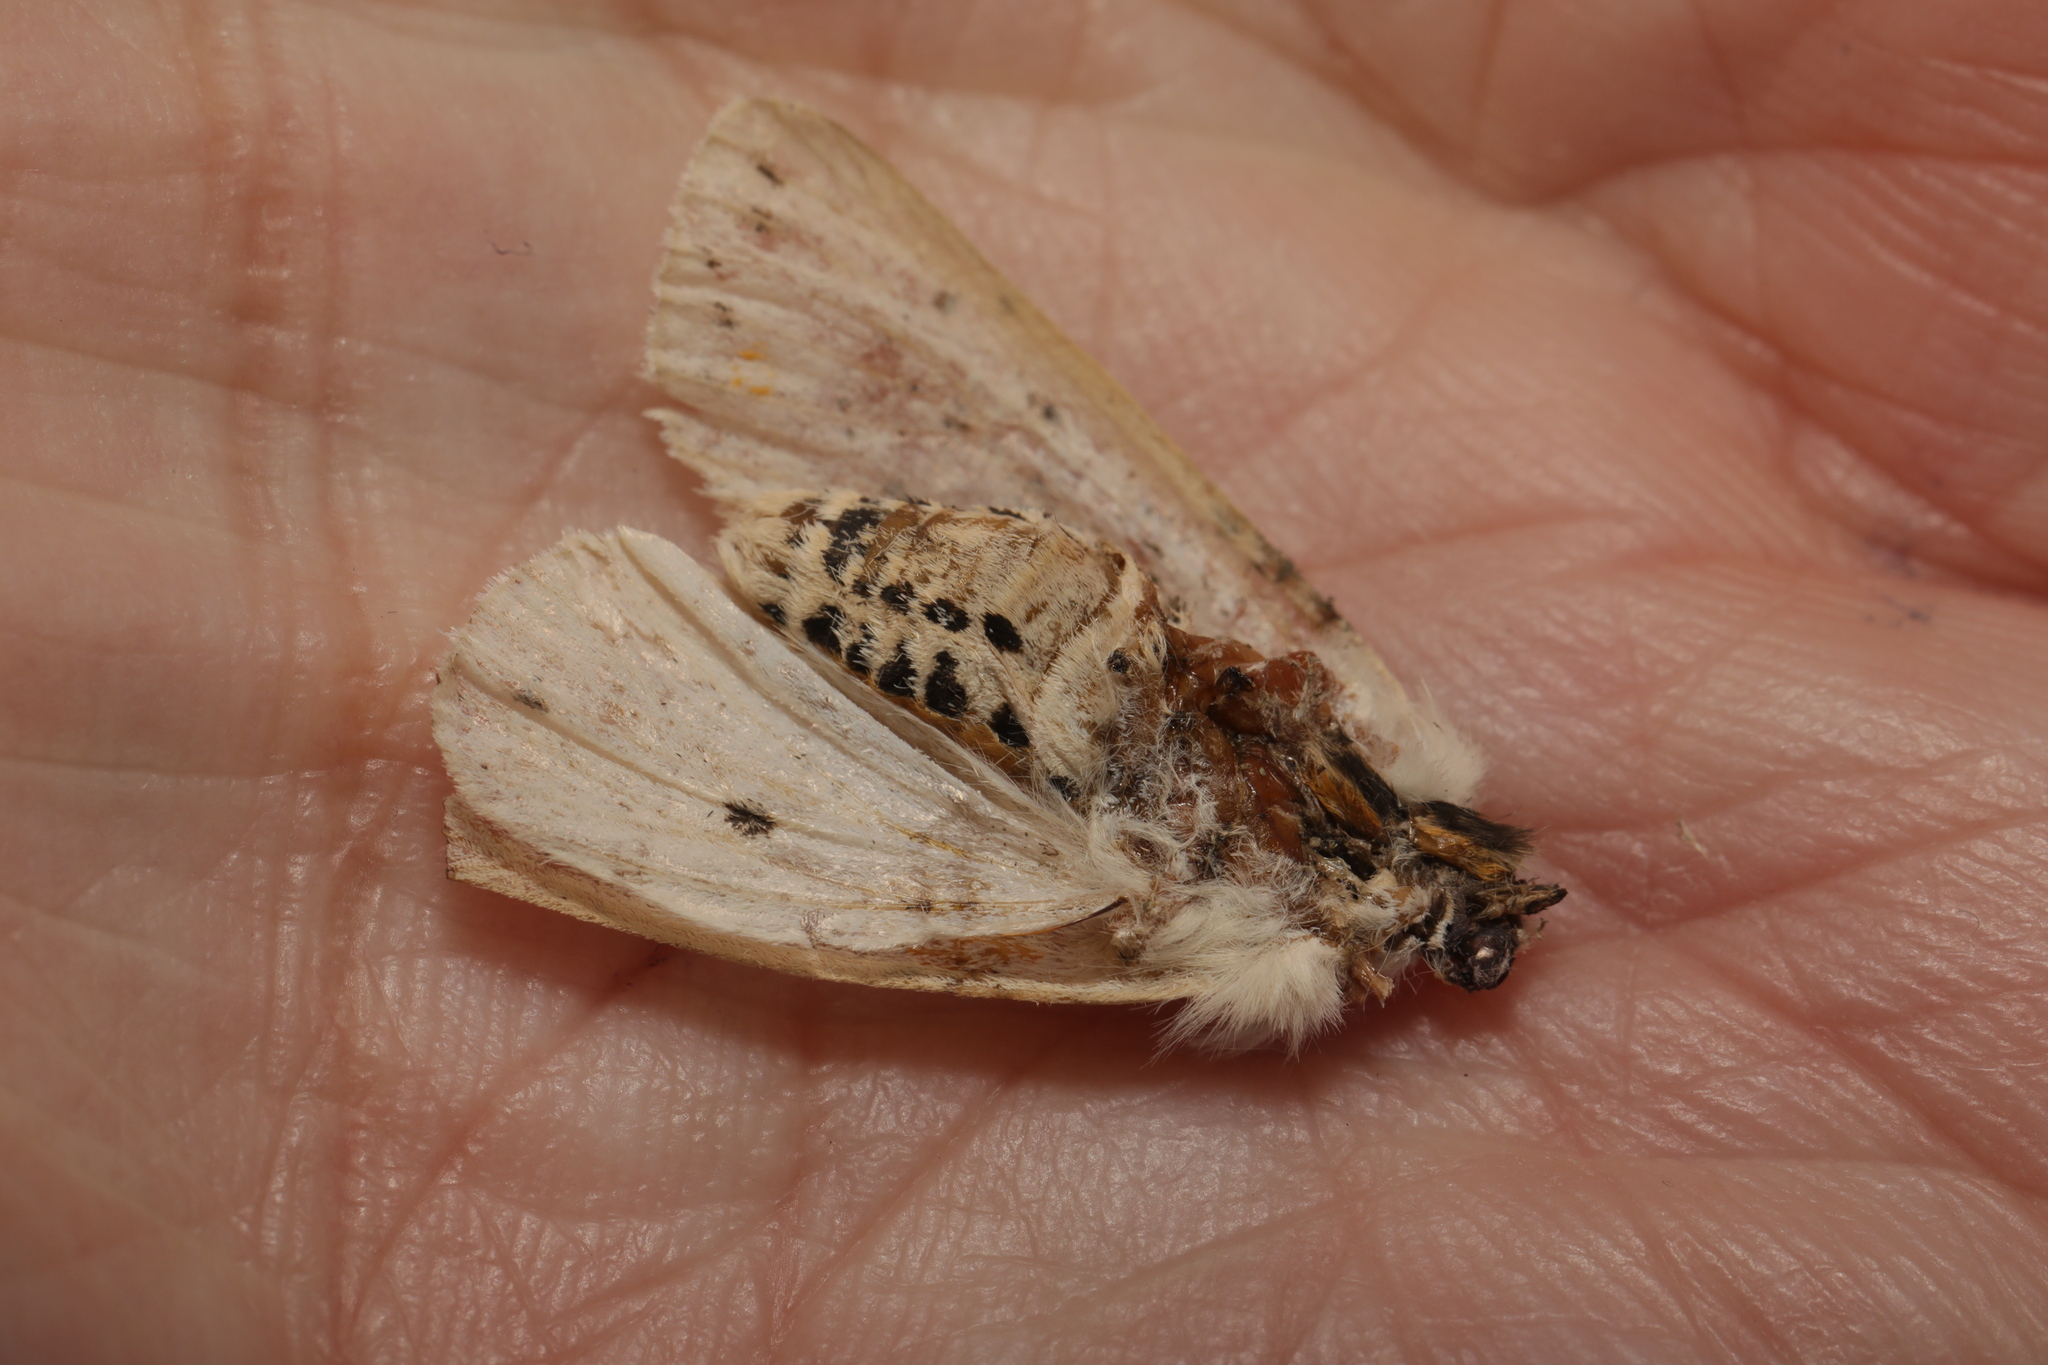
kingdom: Animalia
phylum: Arthropoda
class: Insecta
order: Lepidoptera
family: Erebidae
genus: Spilosoma
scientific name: Spilosoma lubricipeda
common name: White ermine
